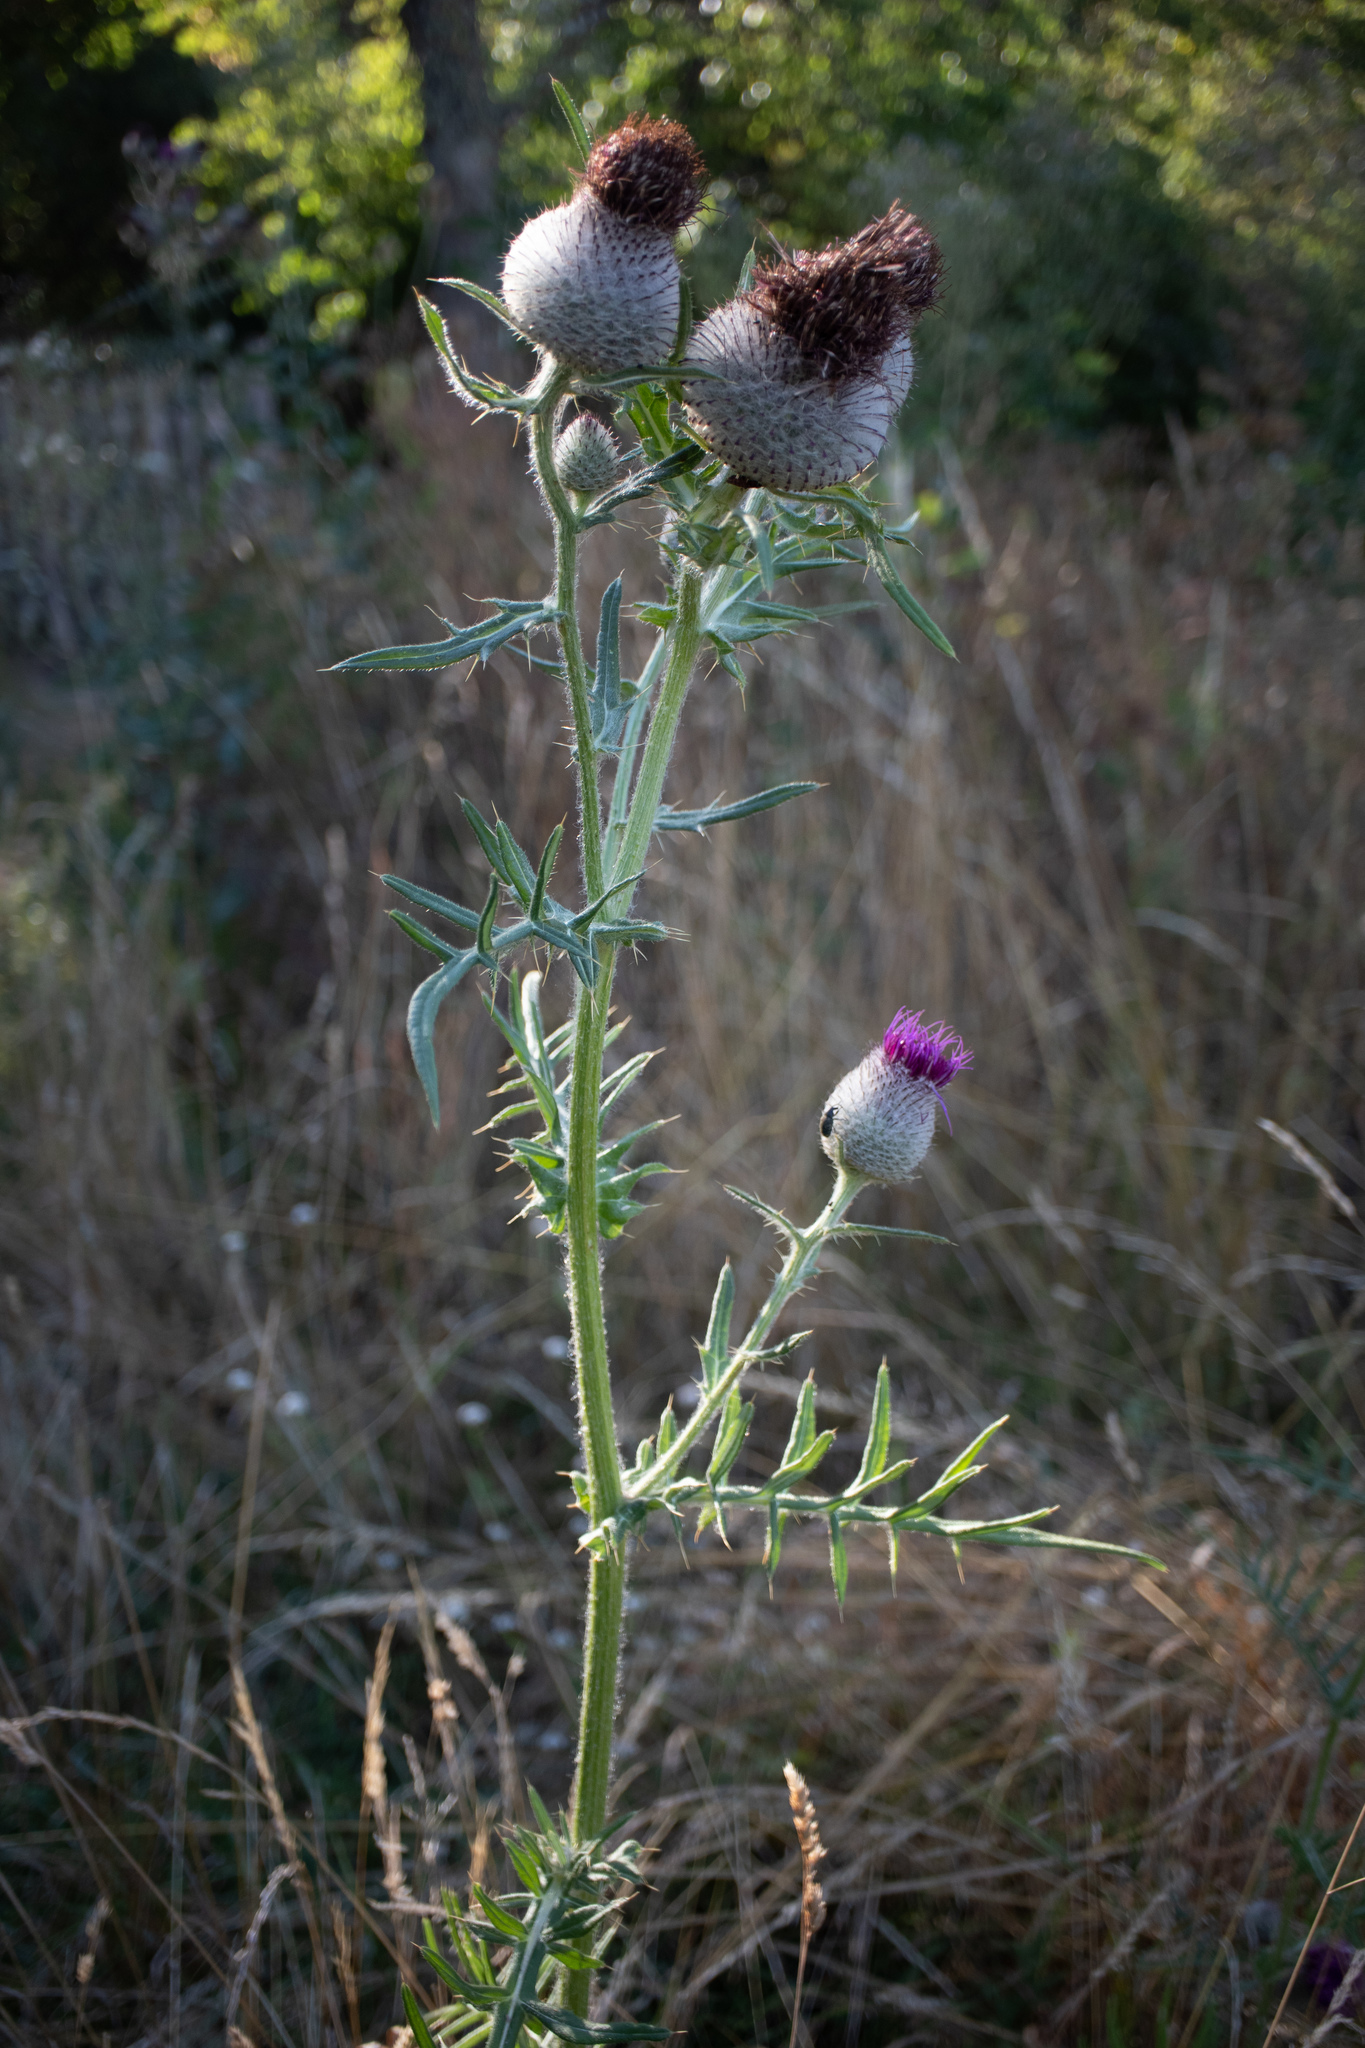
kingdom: Plantae
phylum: Tracheophyta
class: Magnoliopsida
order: Asterales
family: Asteraceae
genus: Lophiolepis
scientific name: Lophiolepis eriophora
